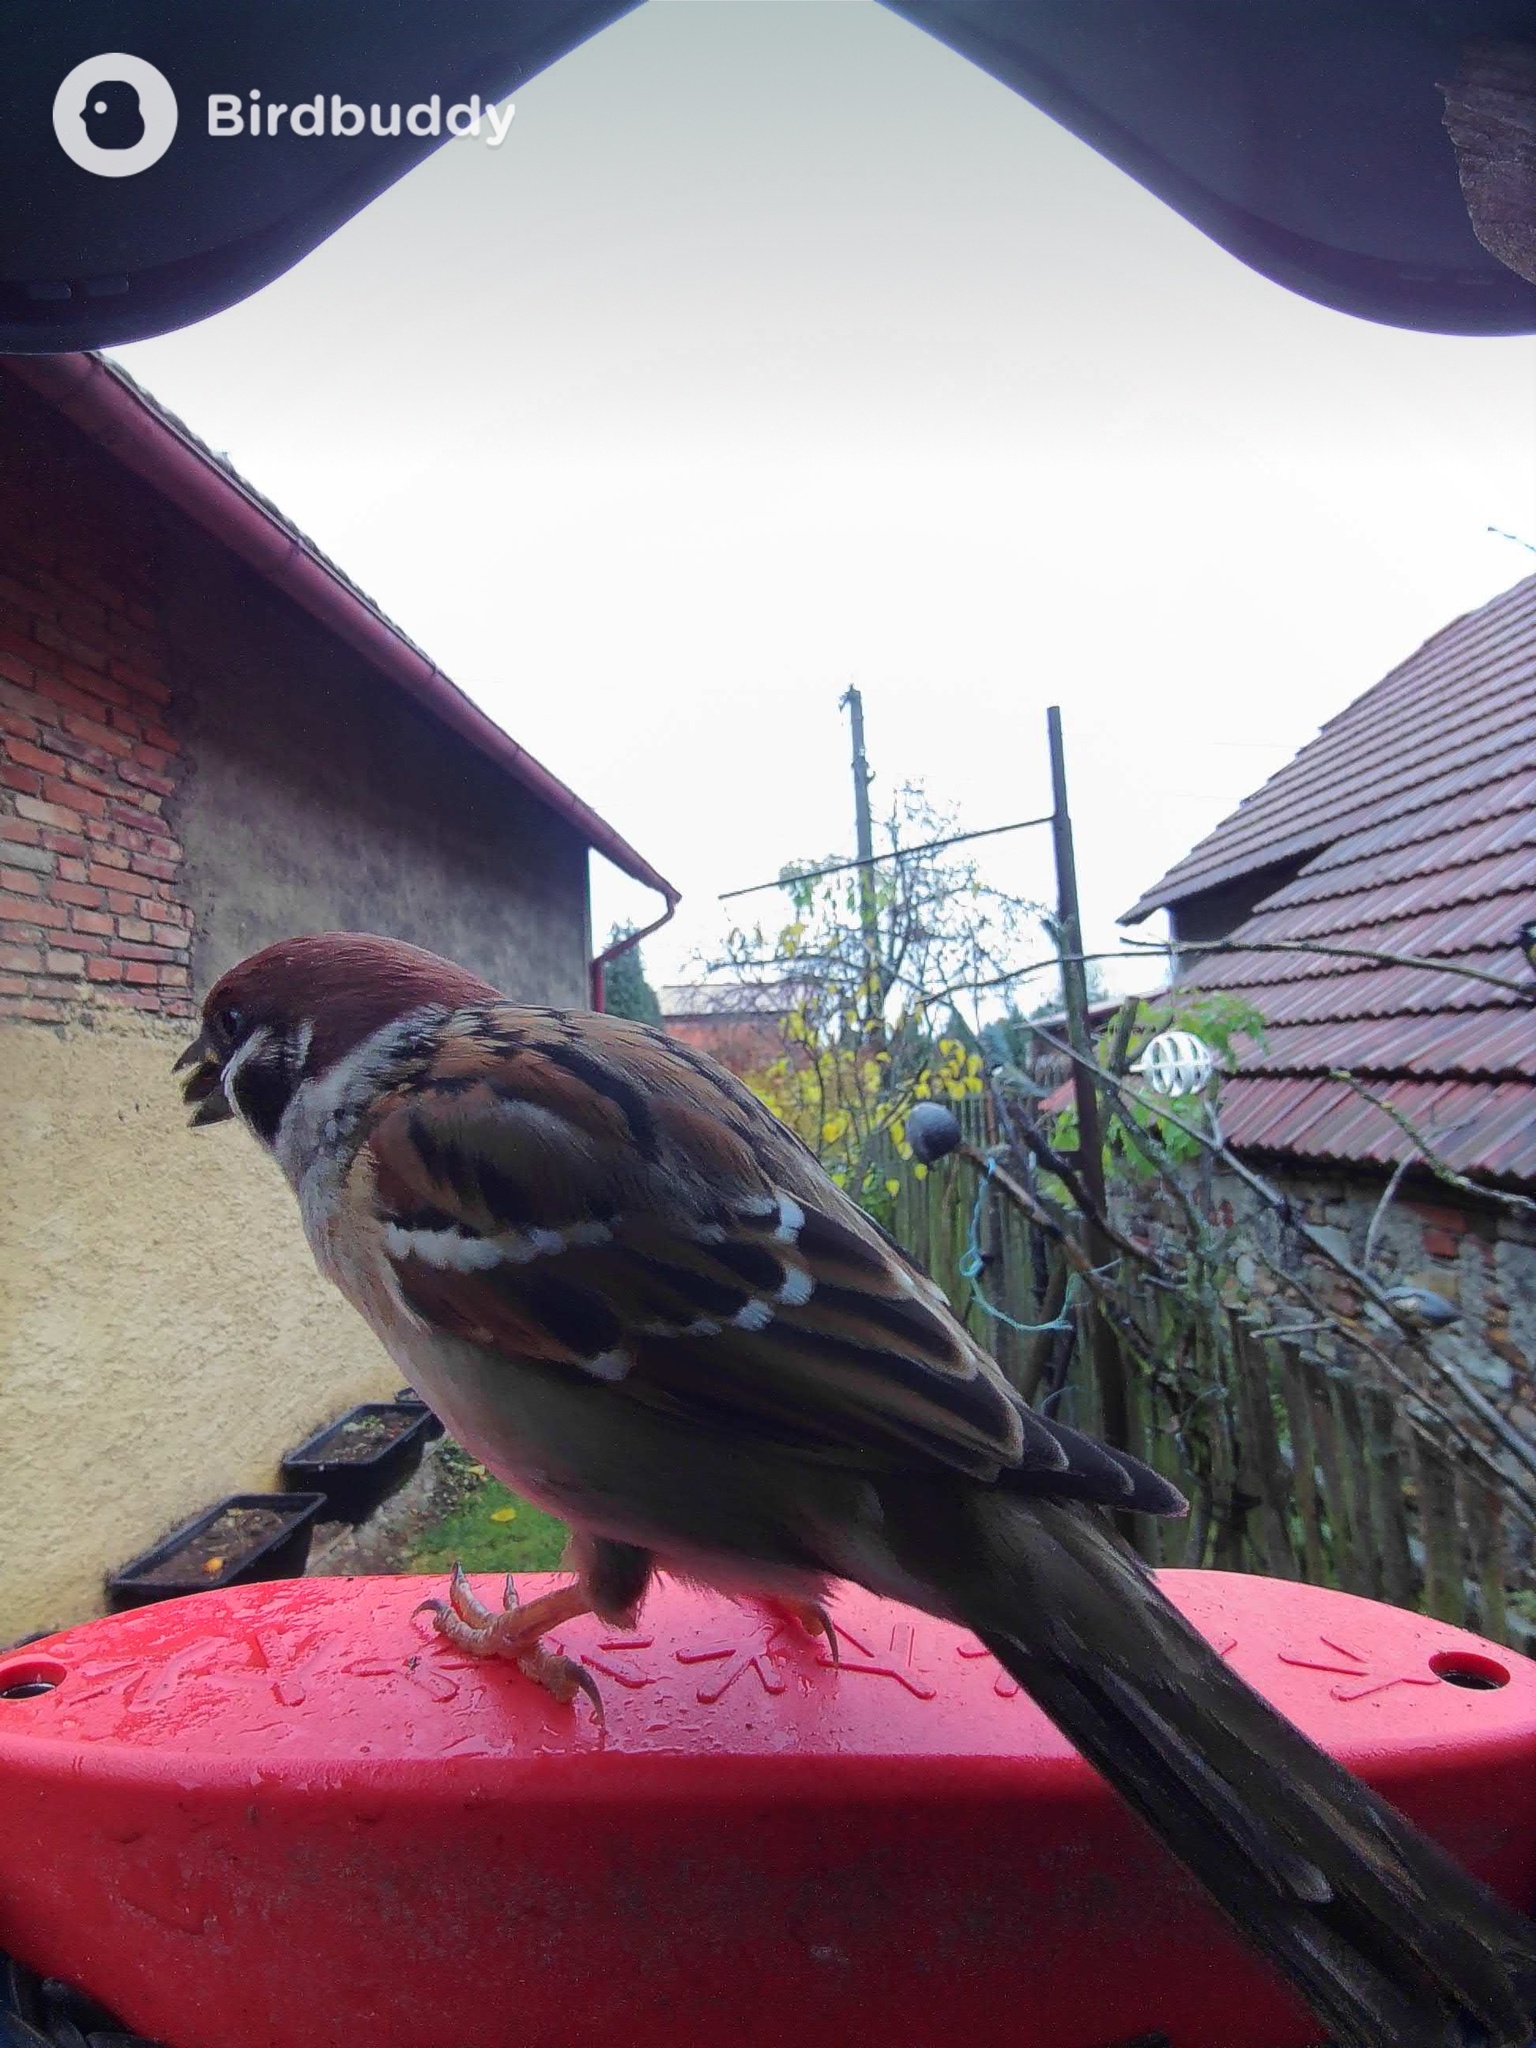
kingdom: Animalia
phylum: Chordata
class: Aves
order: Passeriformes
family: Passeridae
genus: Passer
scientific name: Passer montanus
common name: Eurasian tree sparrow
